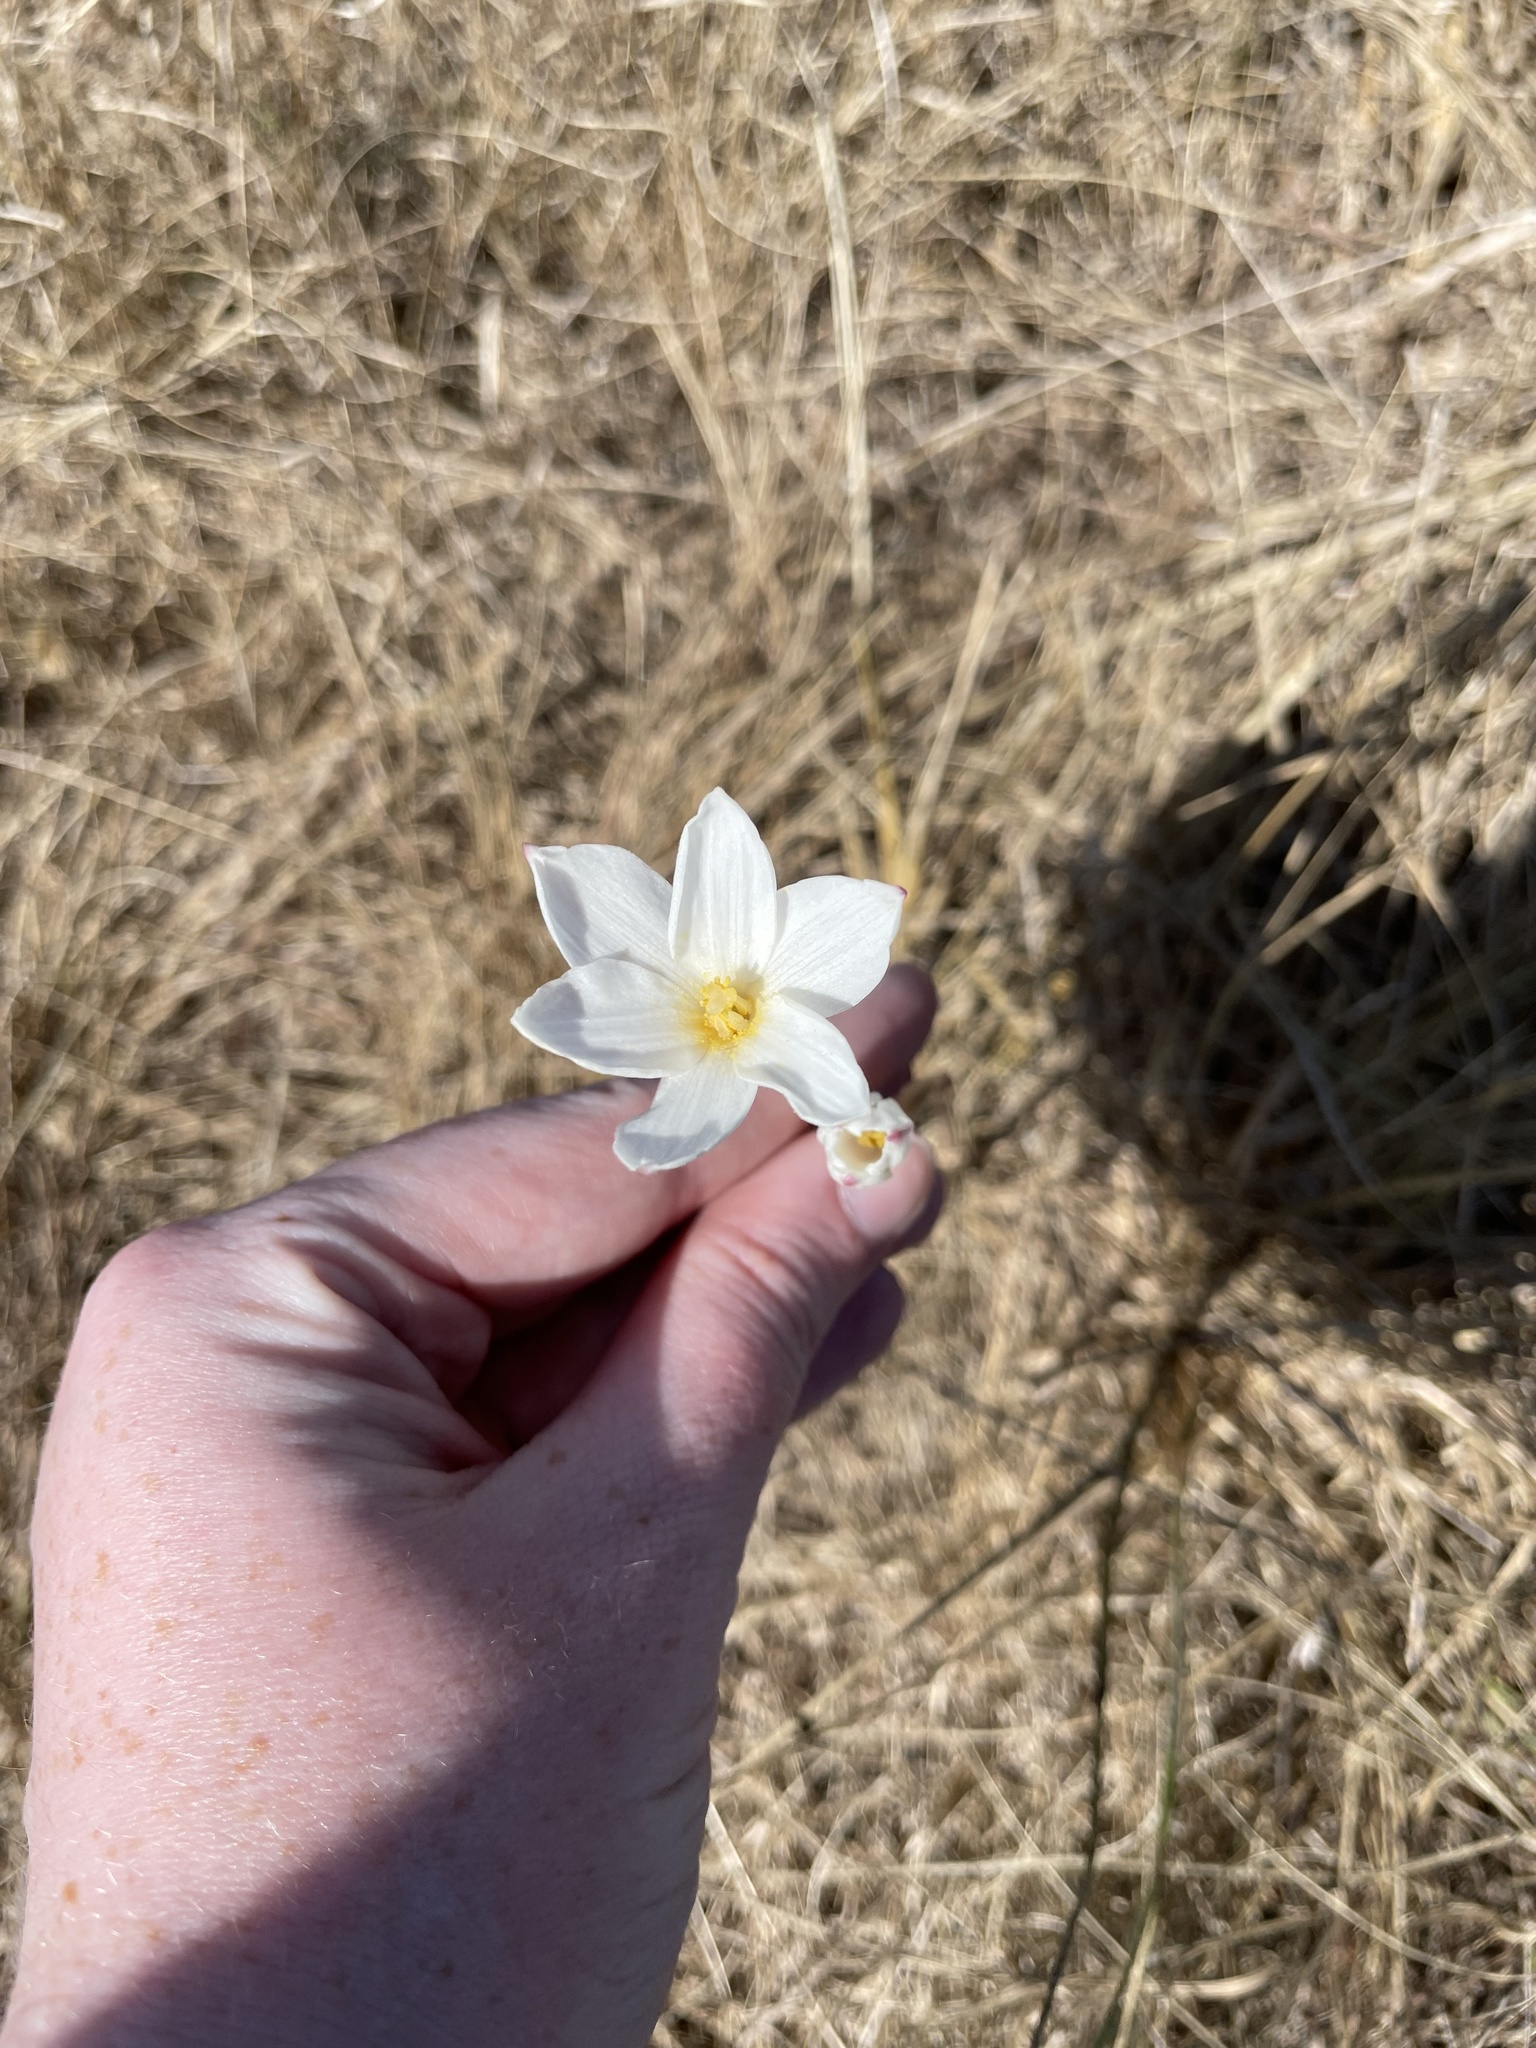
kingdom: Plantae
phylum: Tracheophyta
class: Liliopsida
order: Asparagales
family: Amaryllidaceae
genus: Zephyranthes
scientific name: Zephyranthes chlorosolen
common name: Evening rain-lily
